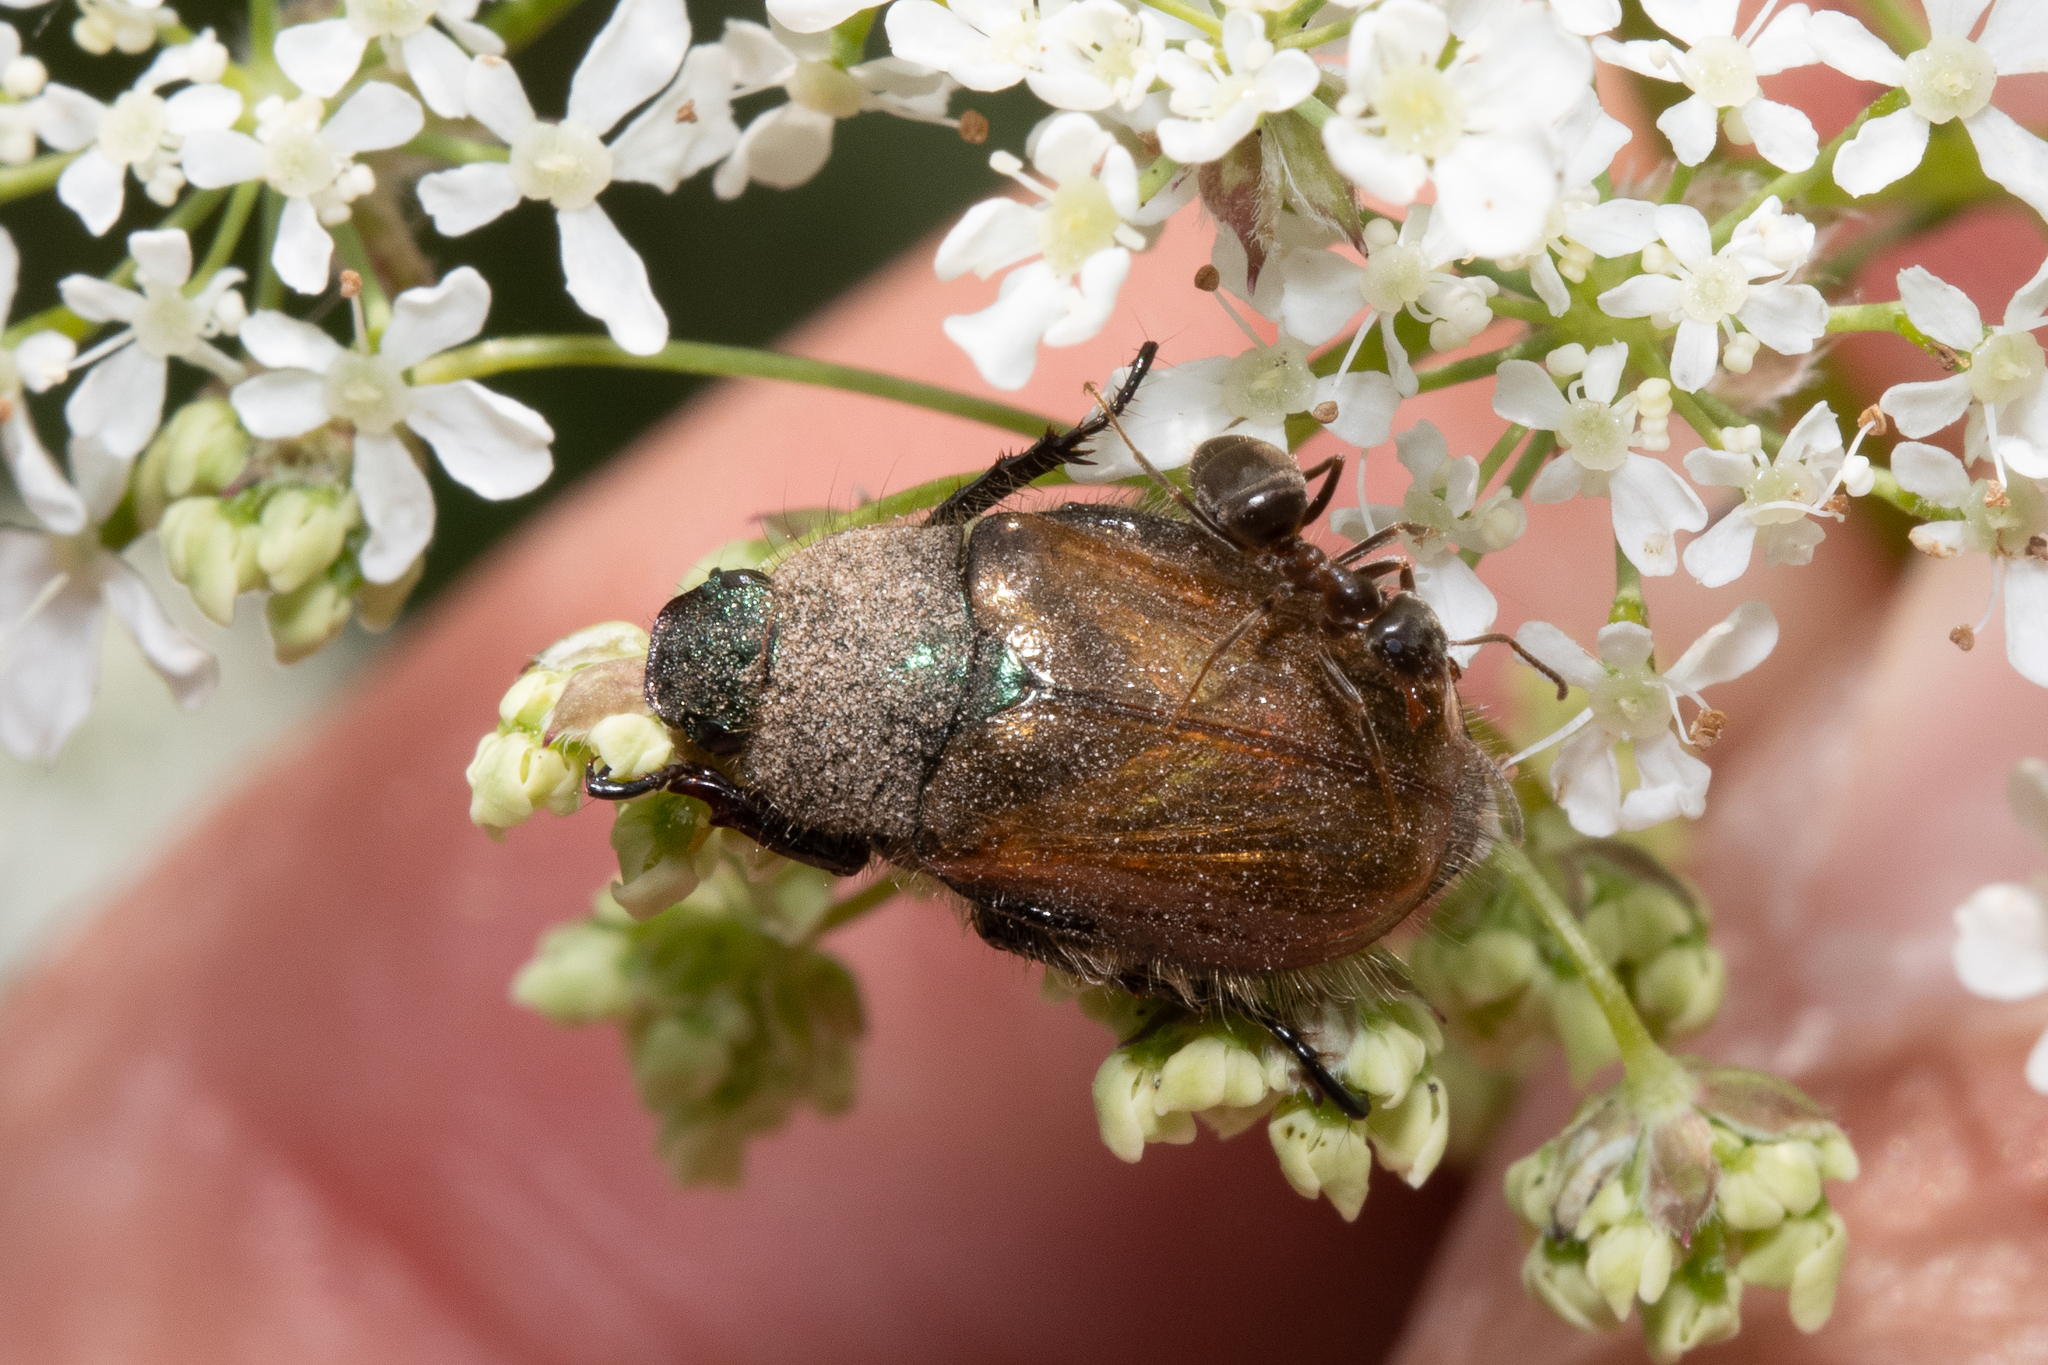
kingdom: Animalia
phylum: Arthropoda
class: Insecta
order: Coleoptera
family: Scarabaeidae
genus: Phyllopertha
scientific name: Phyllopertha horticola
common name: Garden chafer
